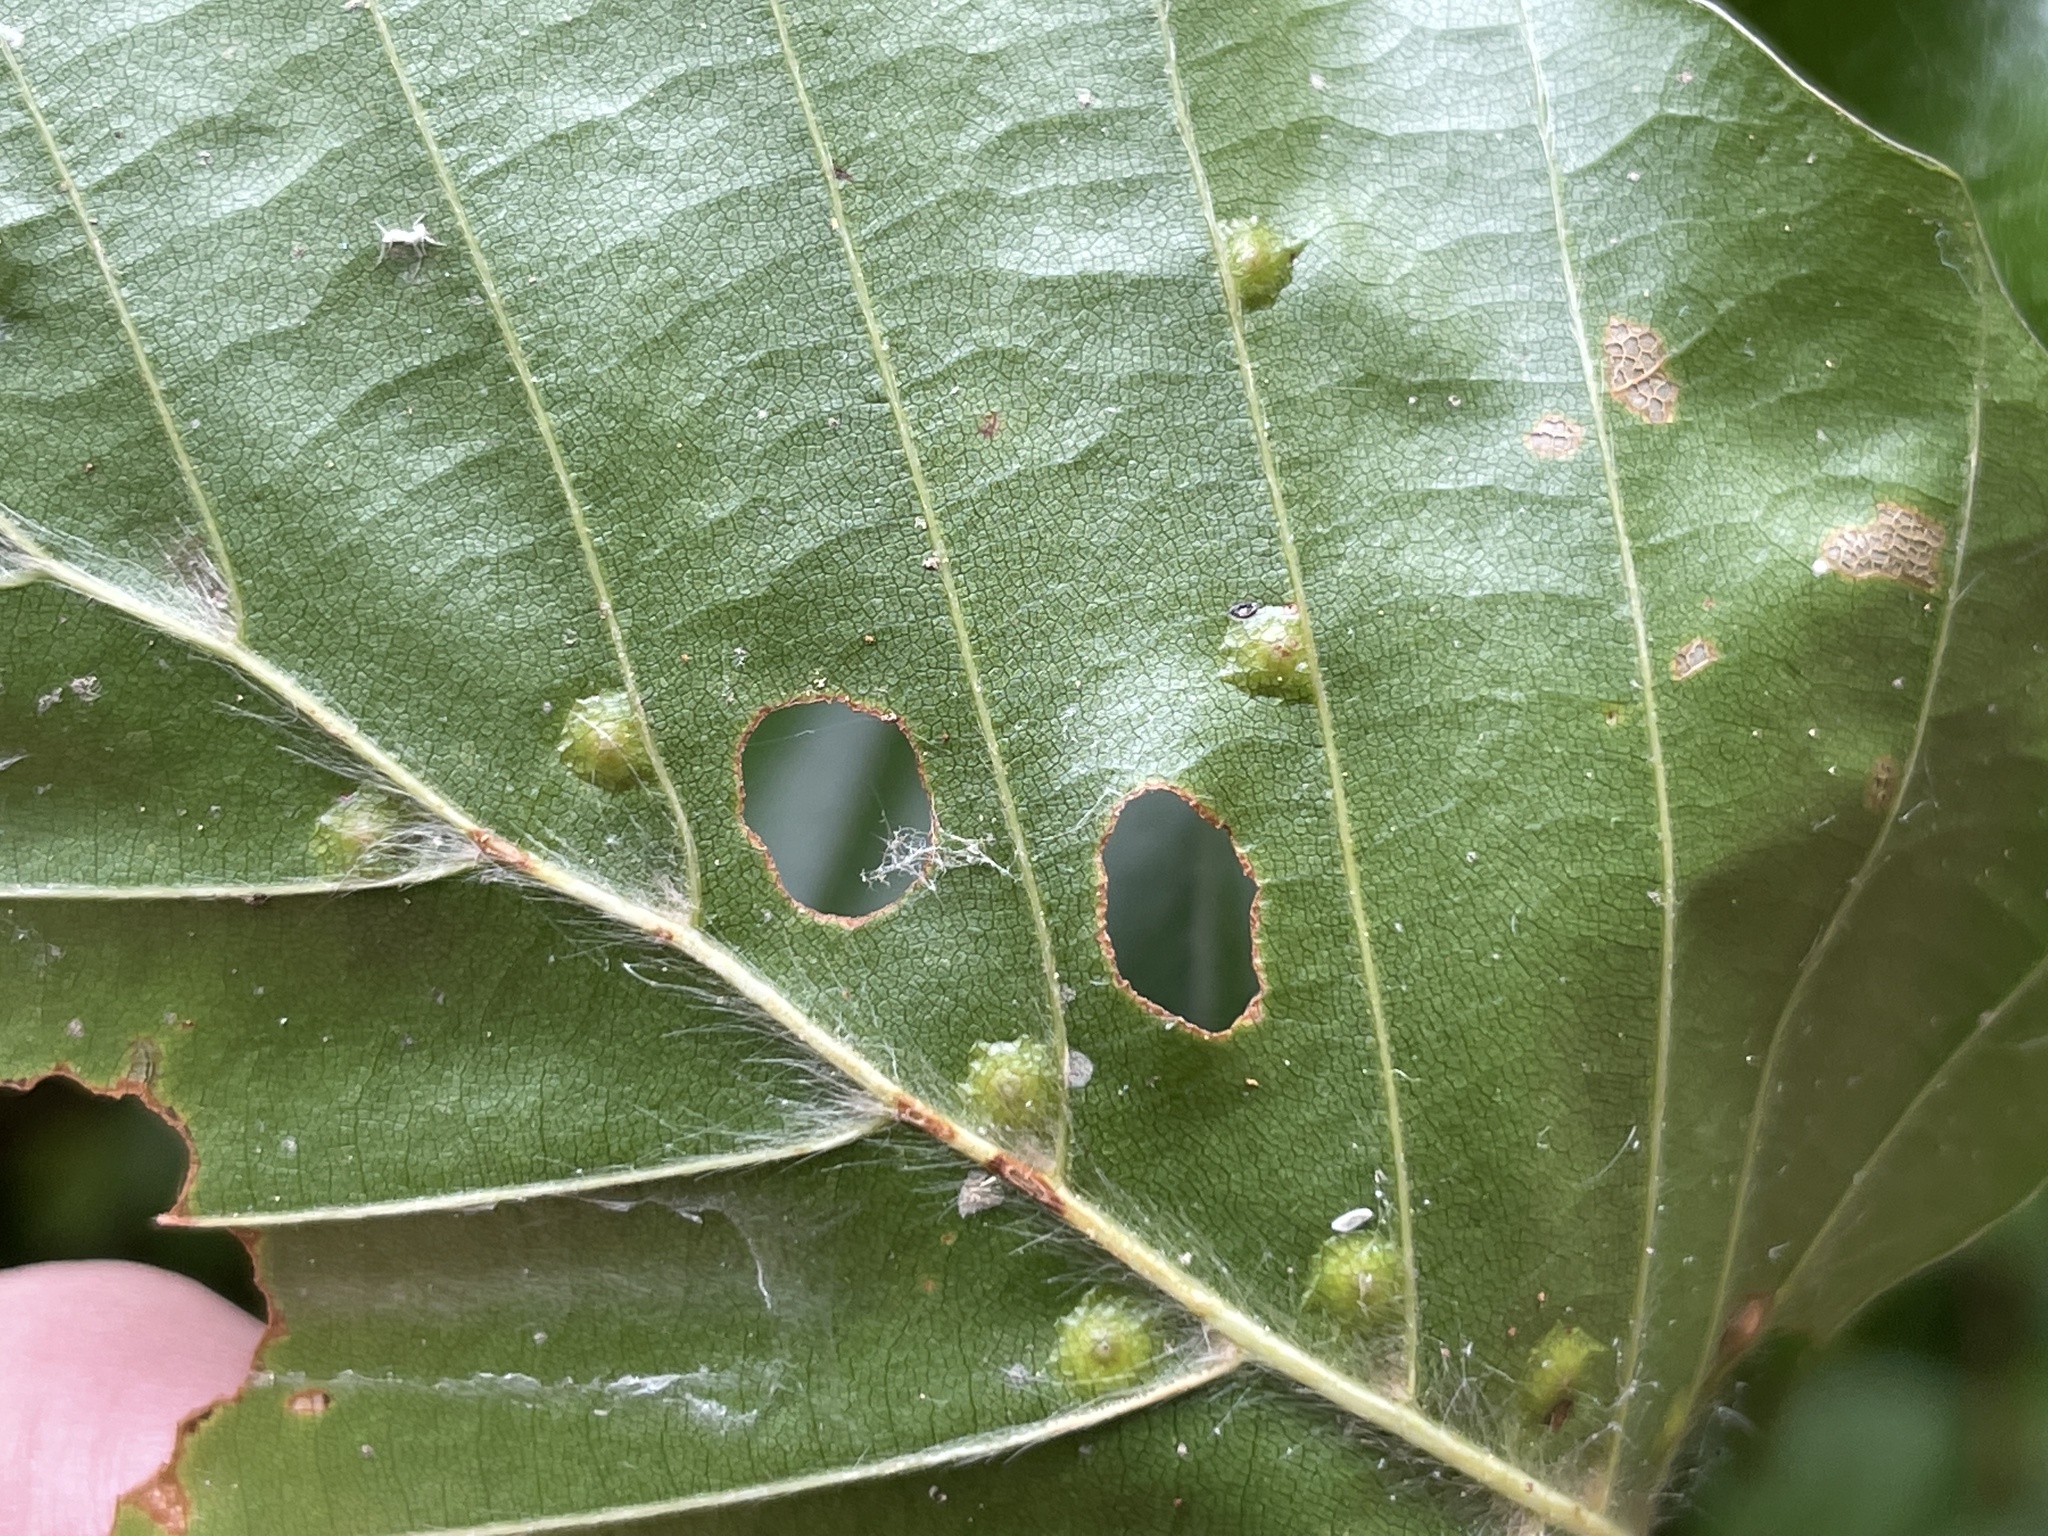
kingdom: Animalia
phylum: Arthropoda
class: Insecta
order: Diptera
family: Cecidomyiidae
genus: Hartigiola
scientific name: Hartigiola annulipes
